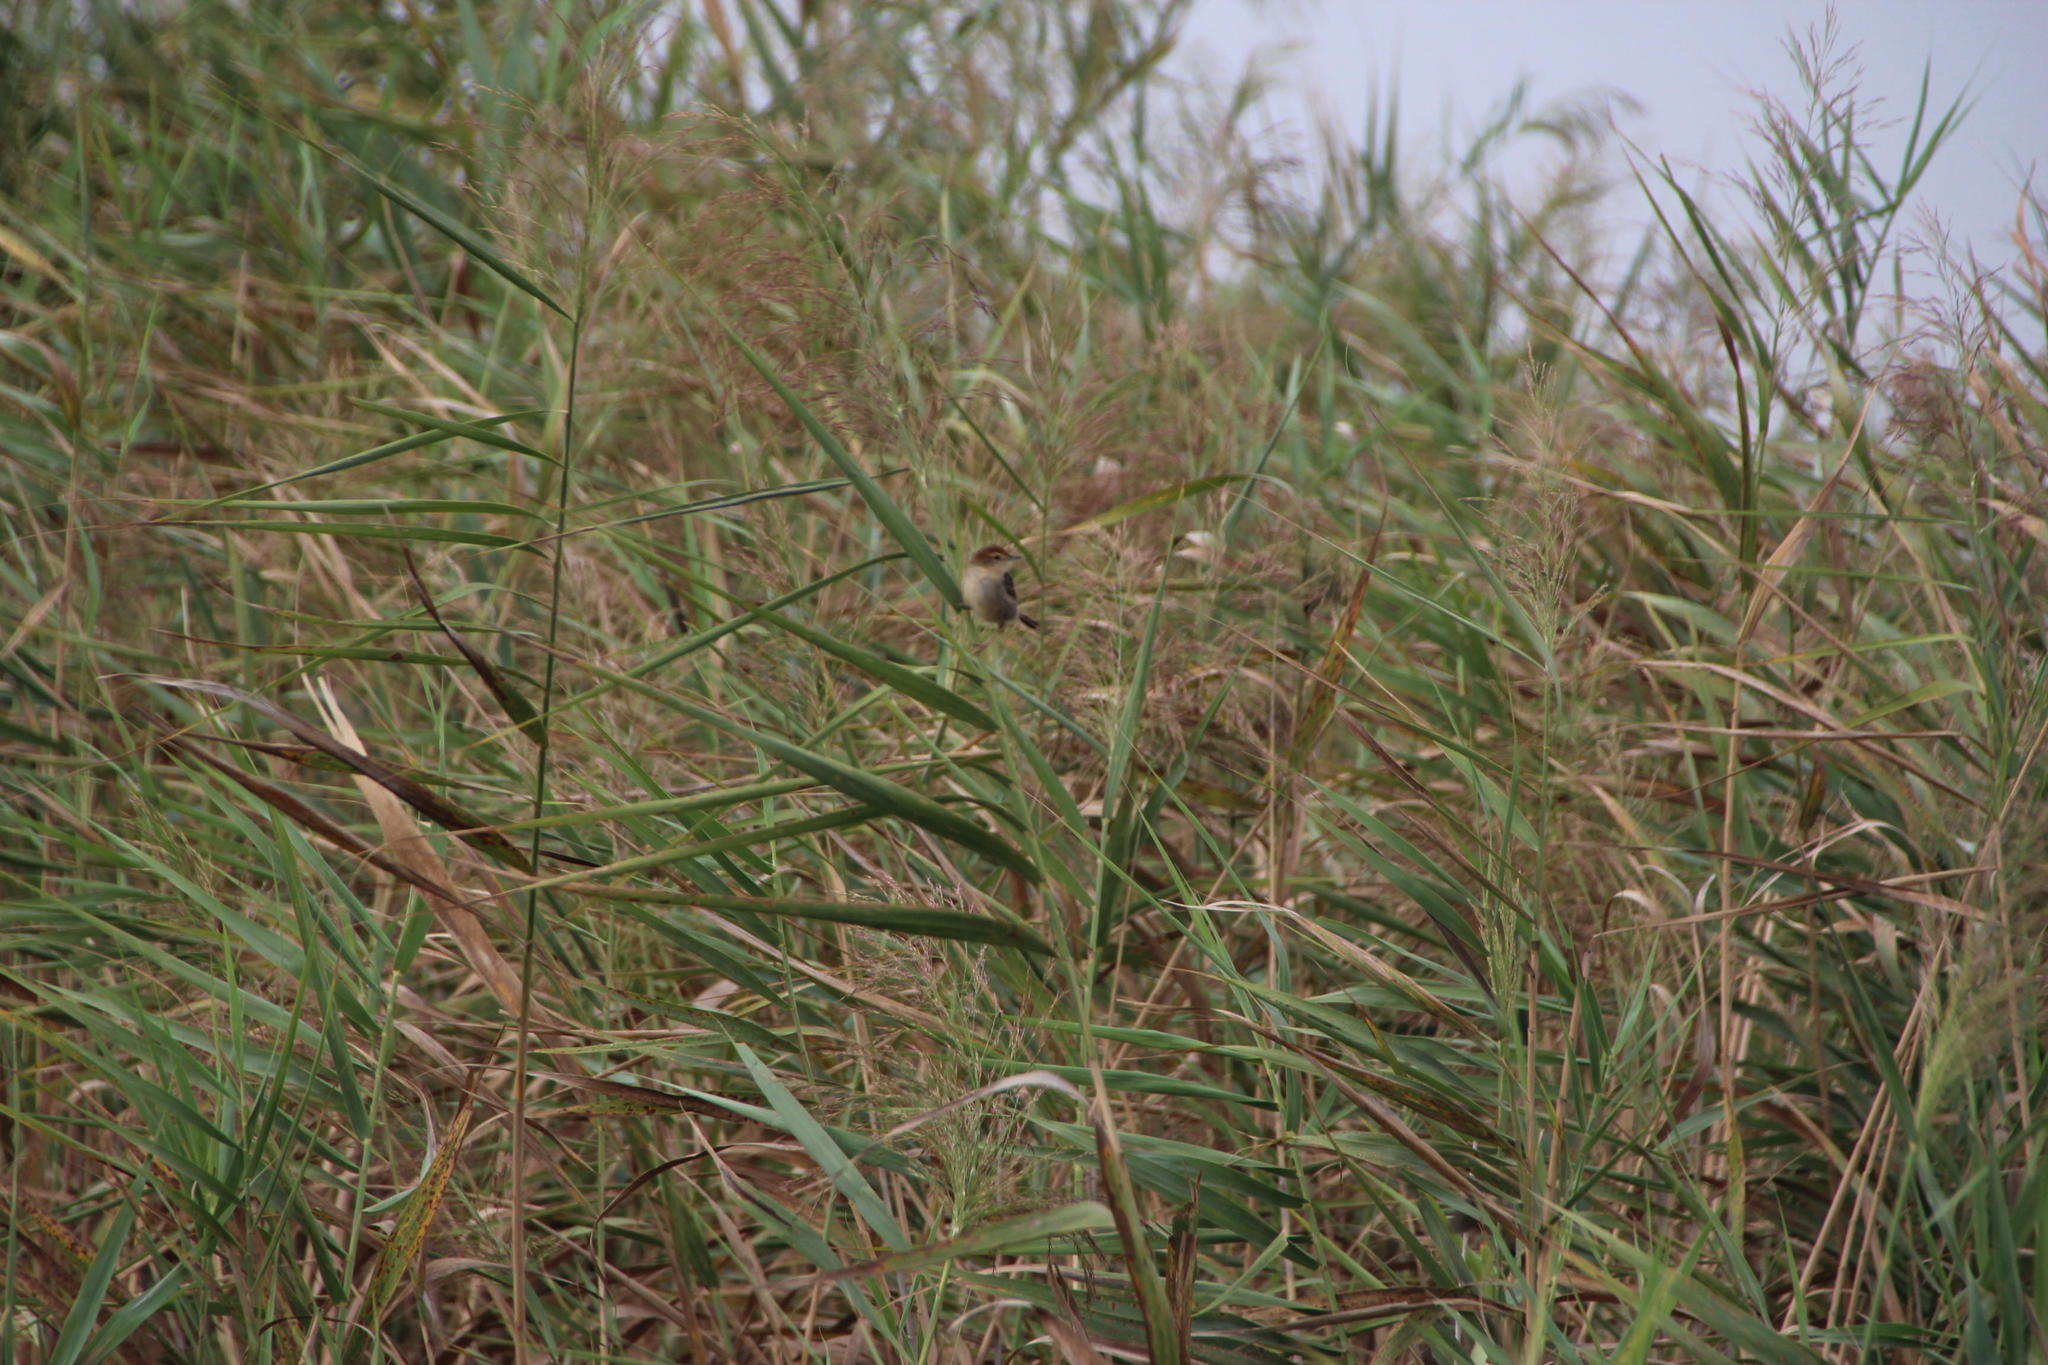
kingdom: Plantae
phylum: Tracheophyta
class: Liliopsida
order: Poales
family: Poaceae
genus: Phragmites
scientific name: Phragmites australis
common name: Common reed
